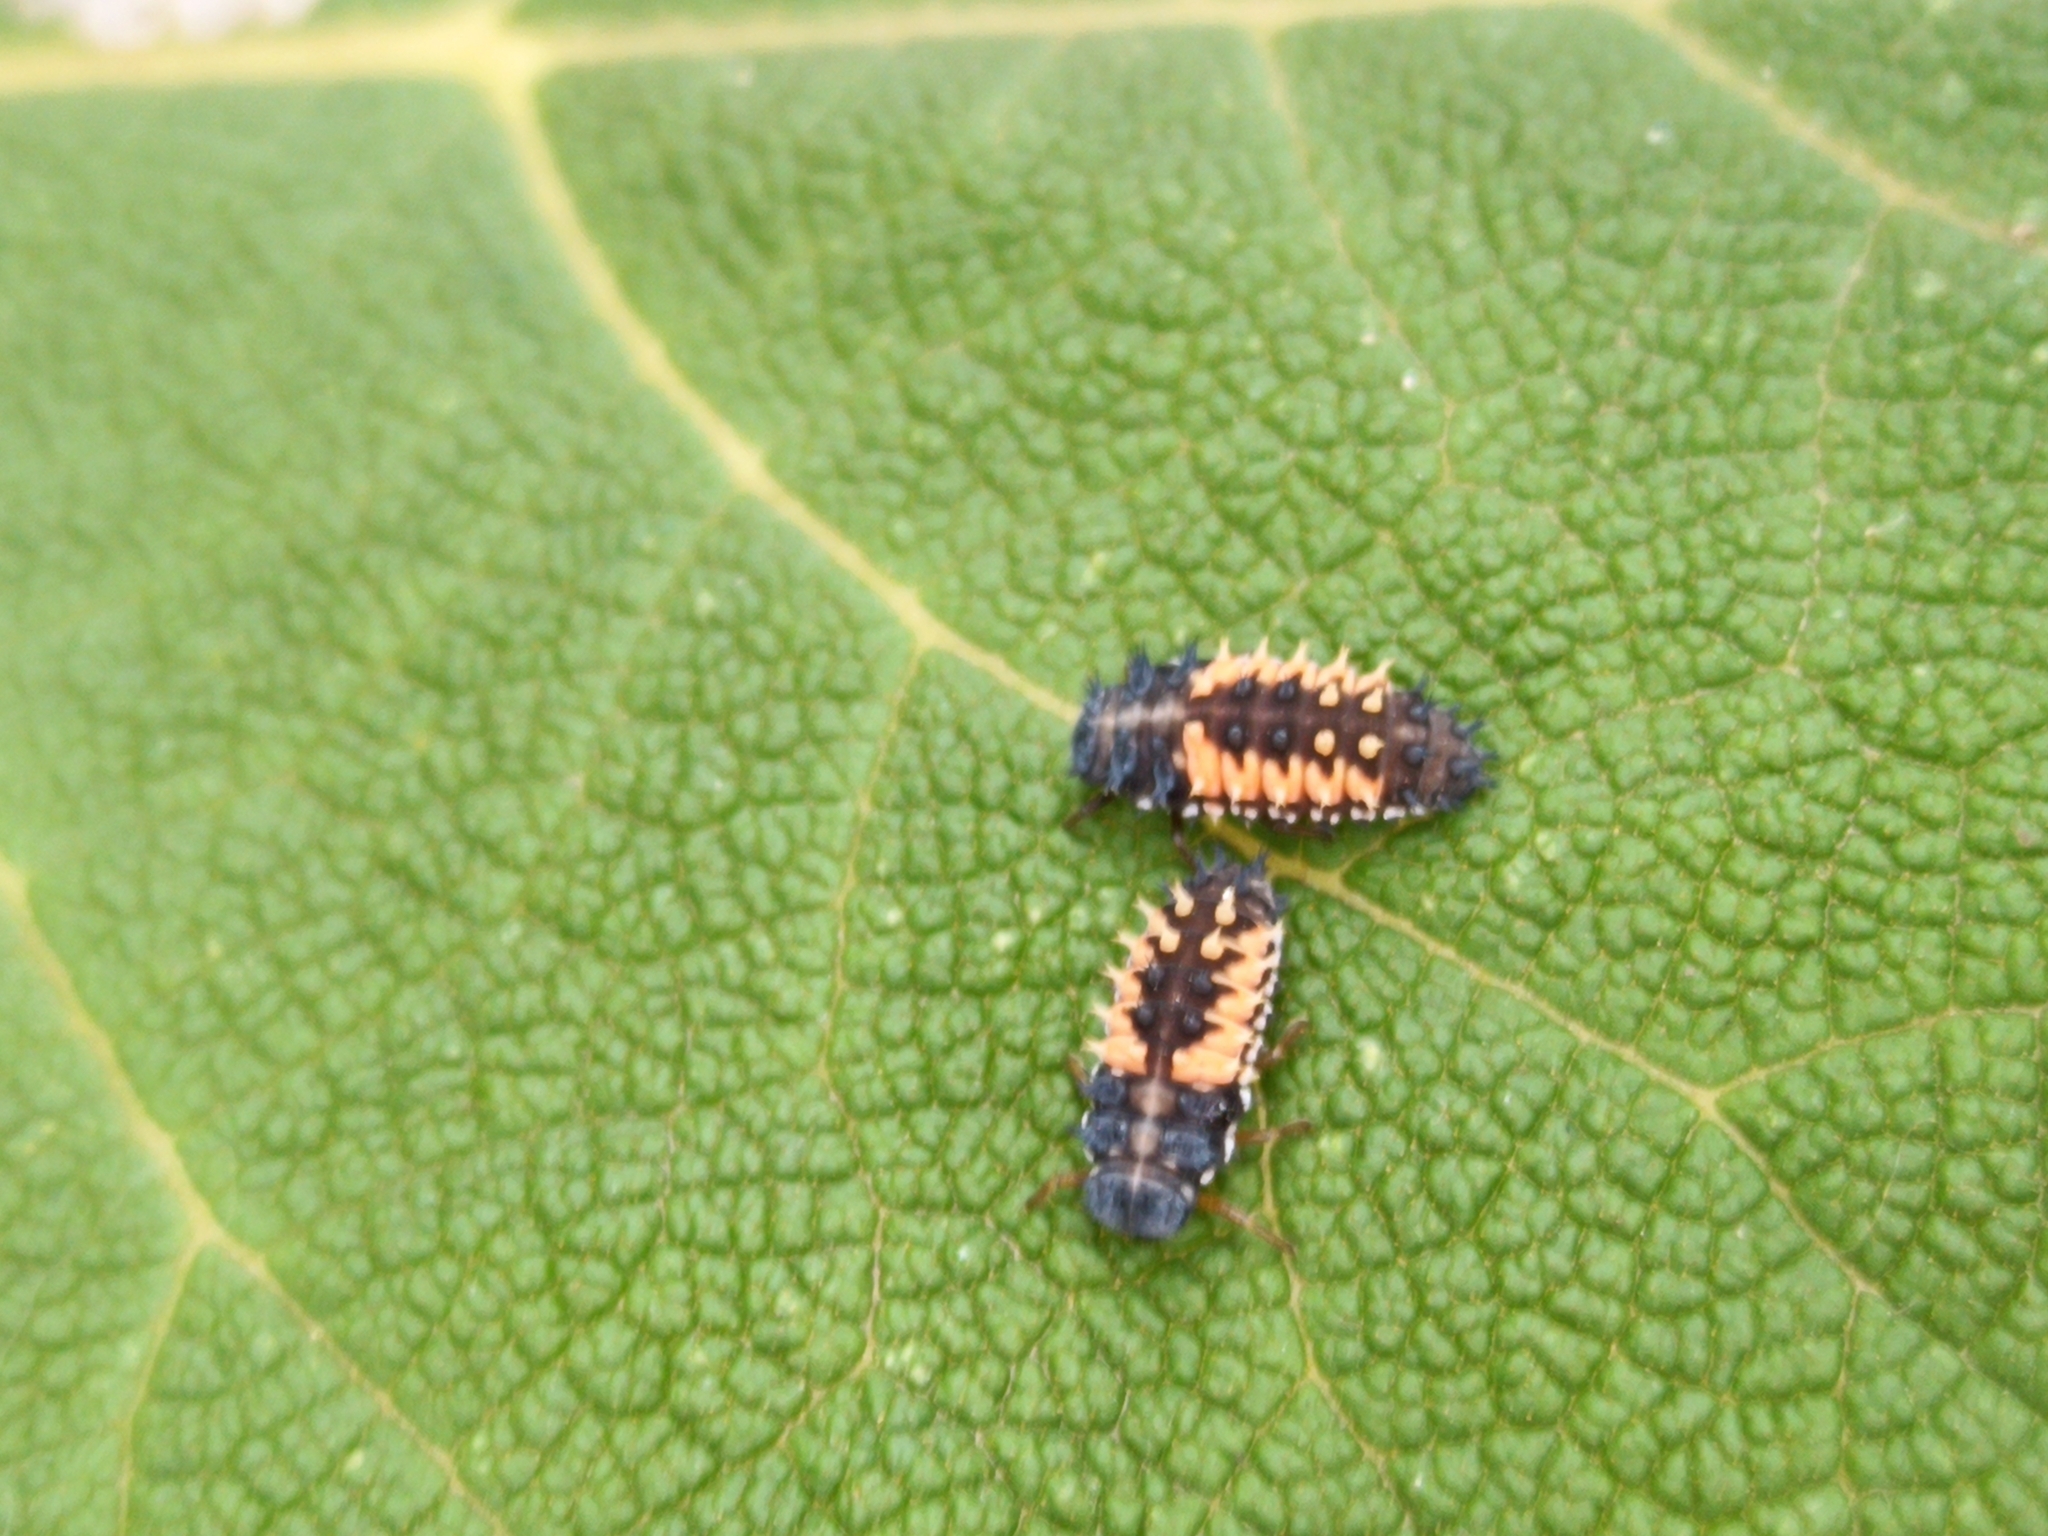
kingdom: Animalia
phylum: Arthropoda
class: Insecta
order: Coleoptera
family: Coccinellidae
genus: Harmonia
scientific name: Harmonia axyridis
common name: Harlequin ladybird
